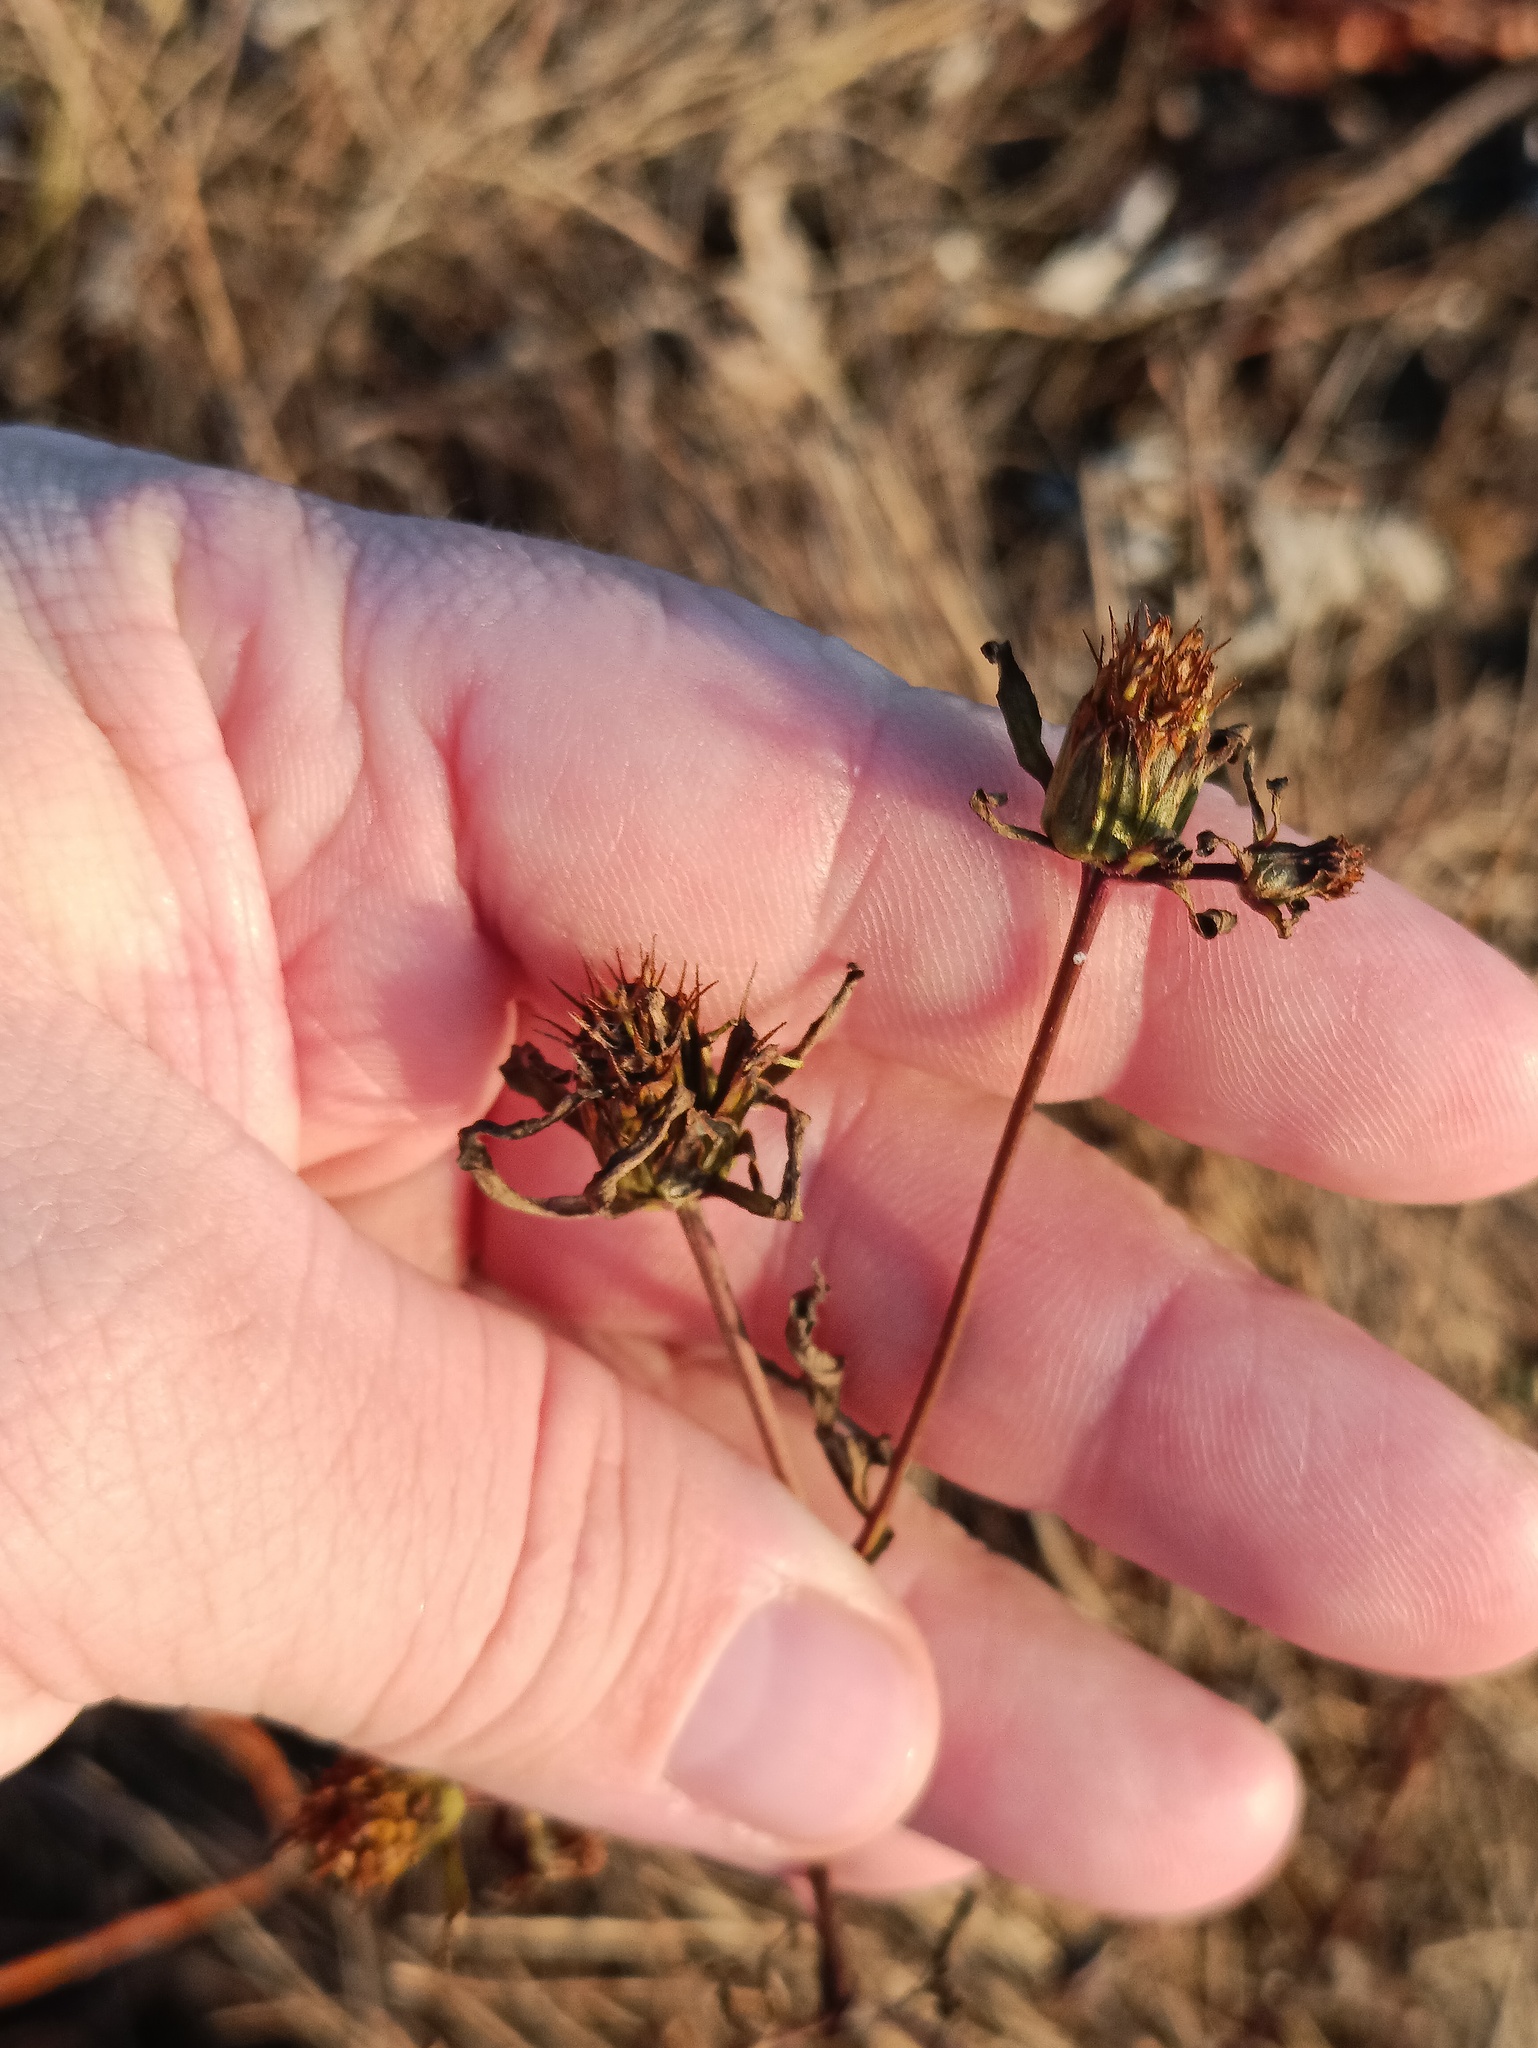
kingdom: Plantae
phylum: Tracheophyta
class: Magnoliopsida
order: Asterales
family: Asteraceae
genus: Bidens
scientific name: Bidens frondosa
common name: Beggarticks
